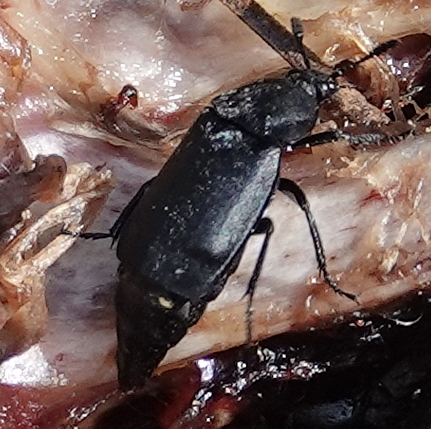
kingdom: Animalia
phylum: Arthropoda
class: Insecta
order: Coleoptera
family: Staphylinidae
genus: Thanatophilus
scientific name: Thanatophilus truncatus
